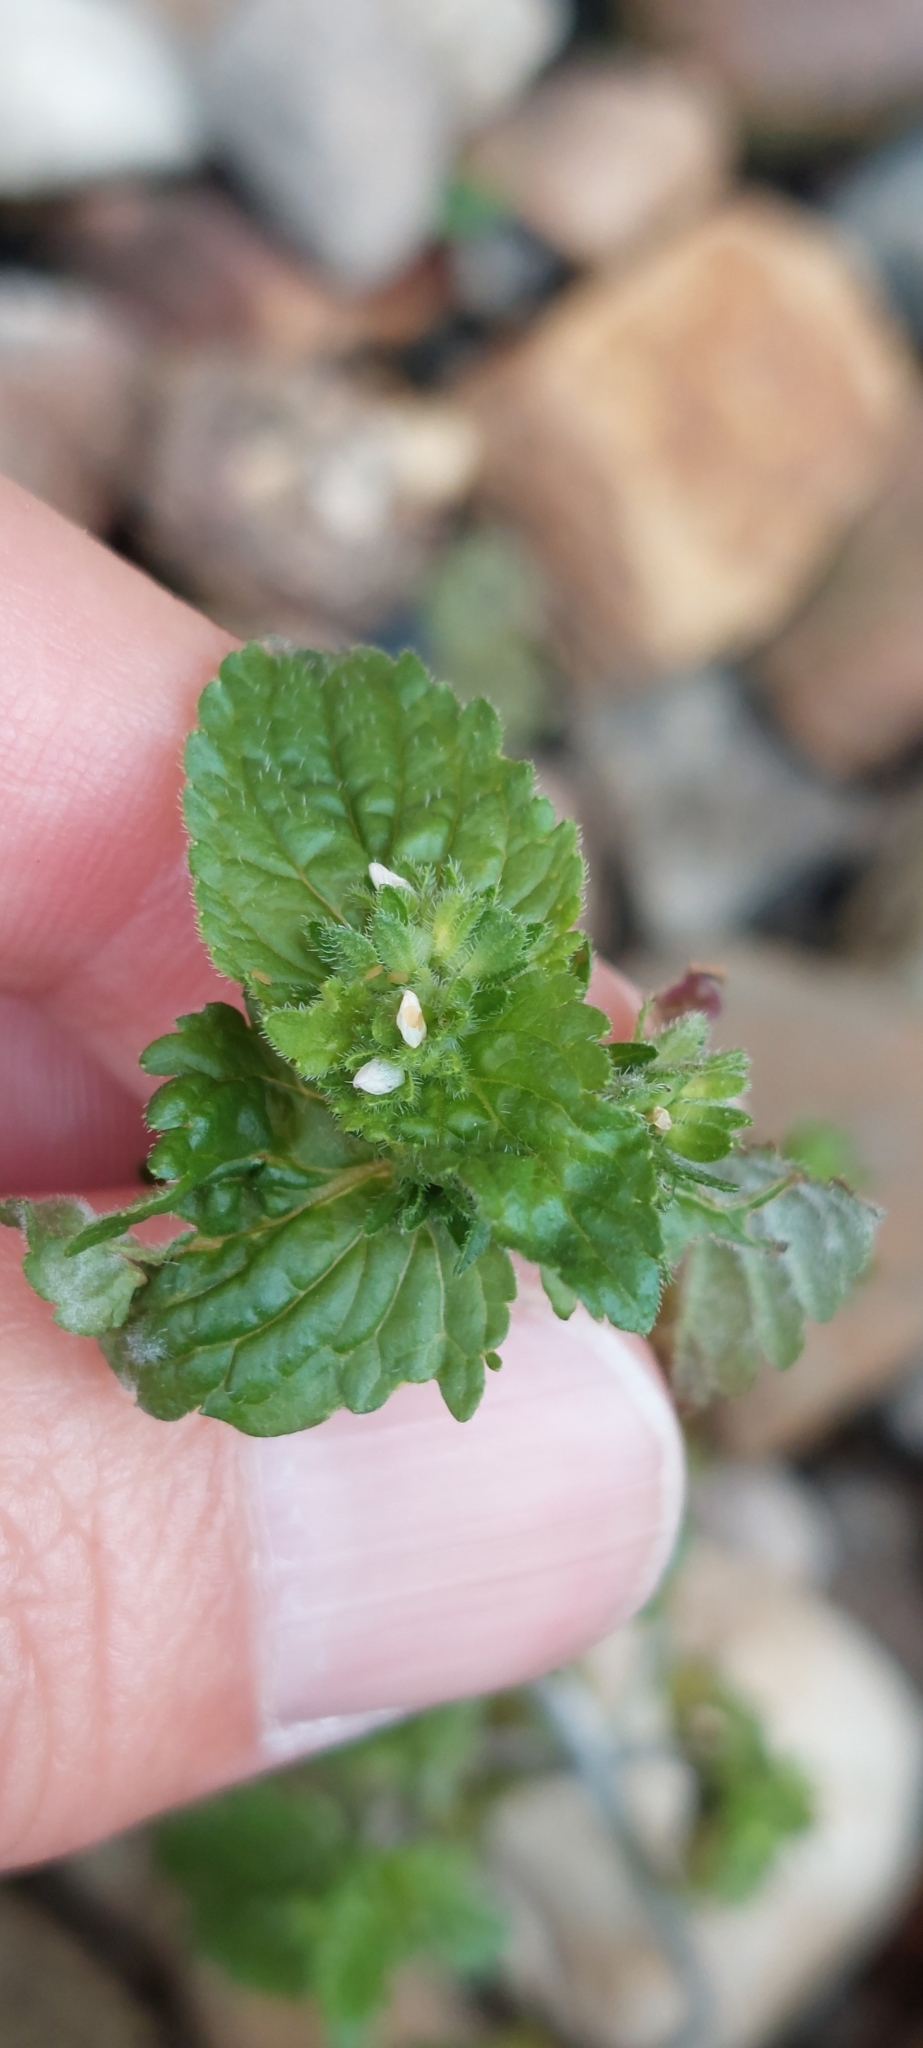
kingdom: Plantae
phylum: Tracheophyta
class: Magnoliopsida
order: Lamiales
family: Plantaginaceae
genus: Veronica
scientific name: Veronica javanica
